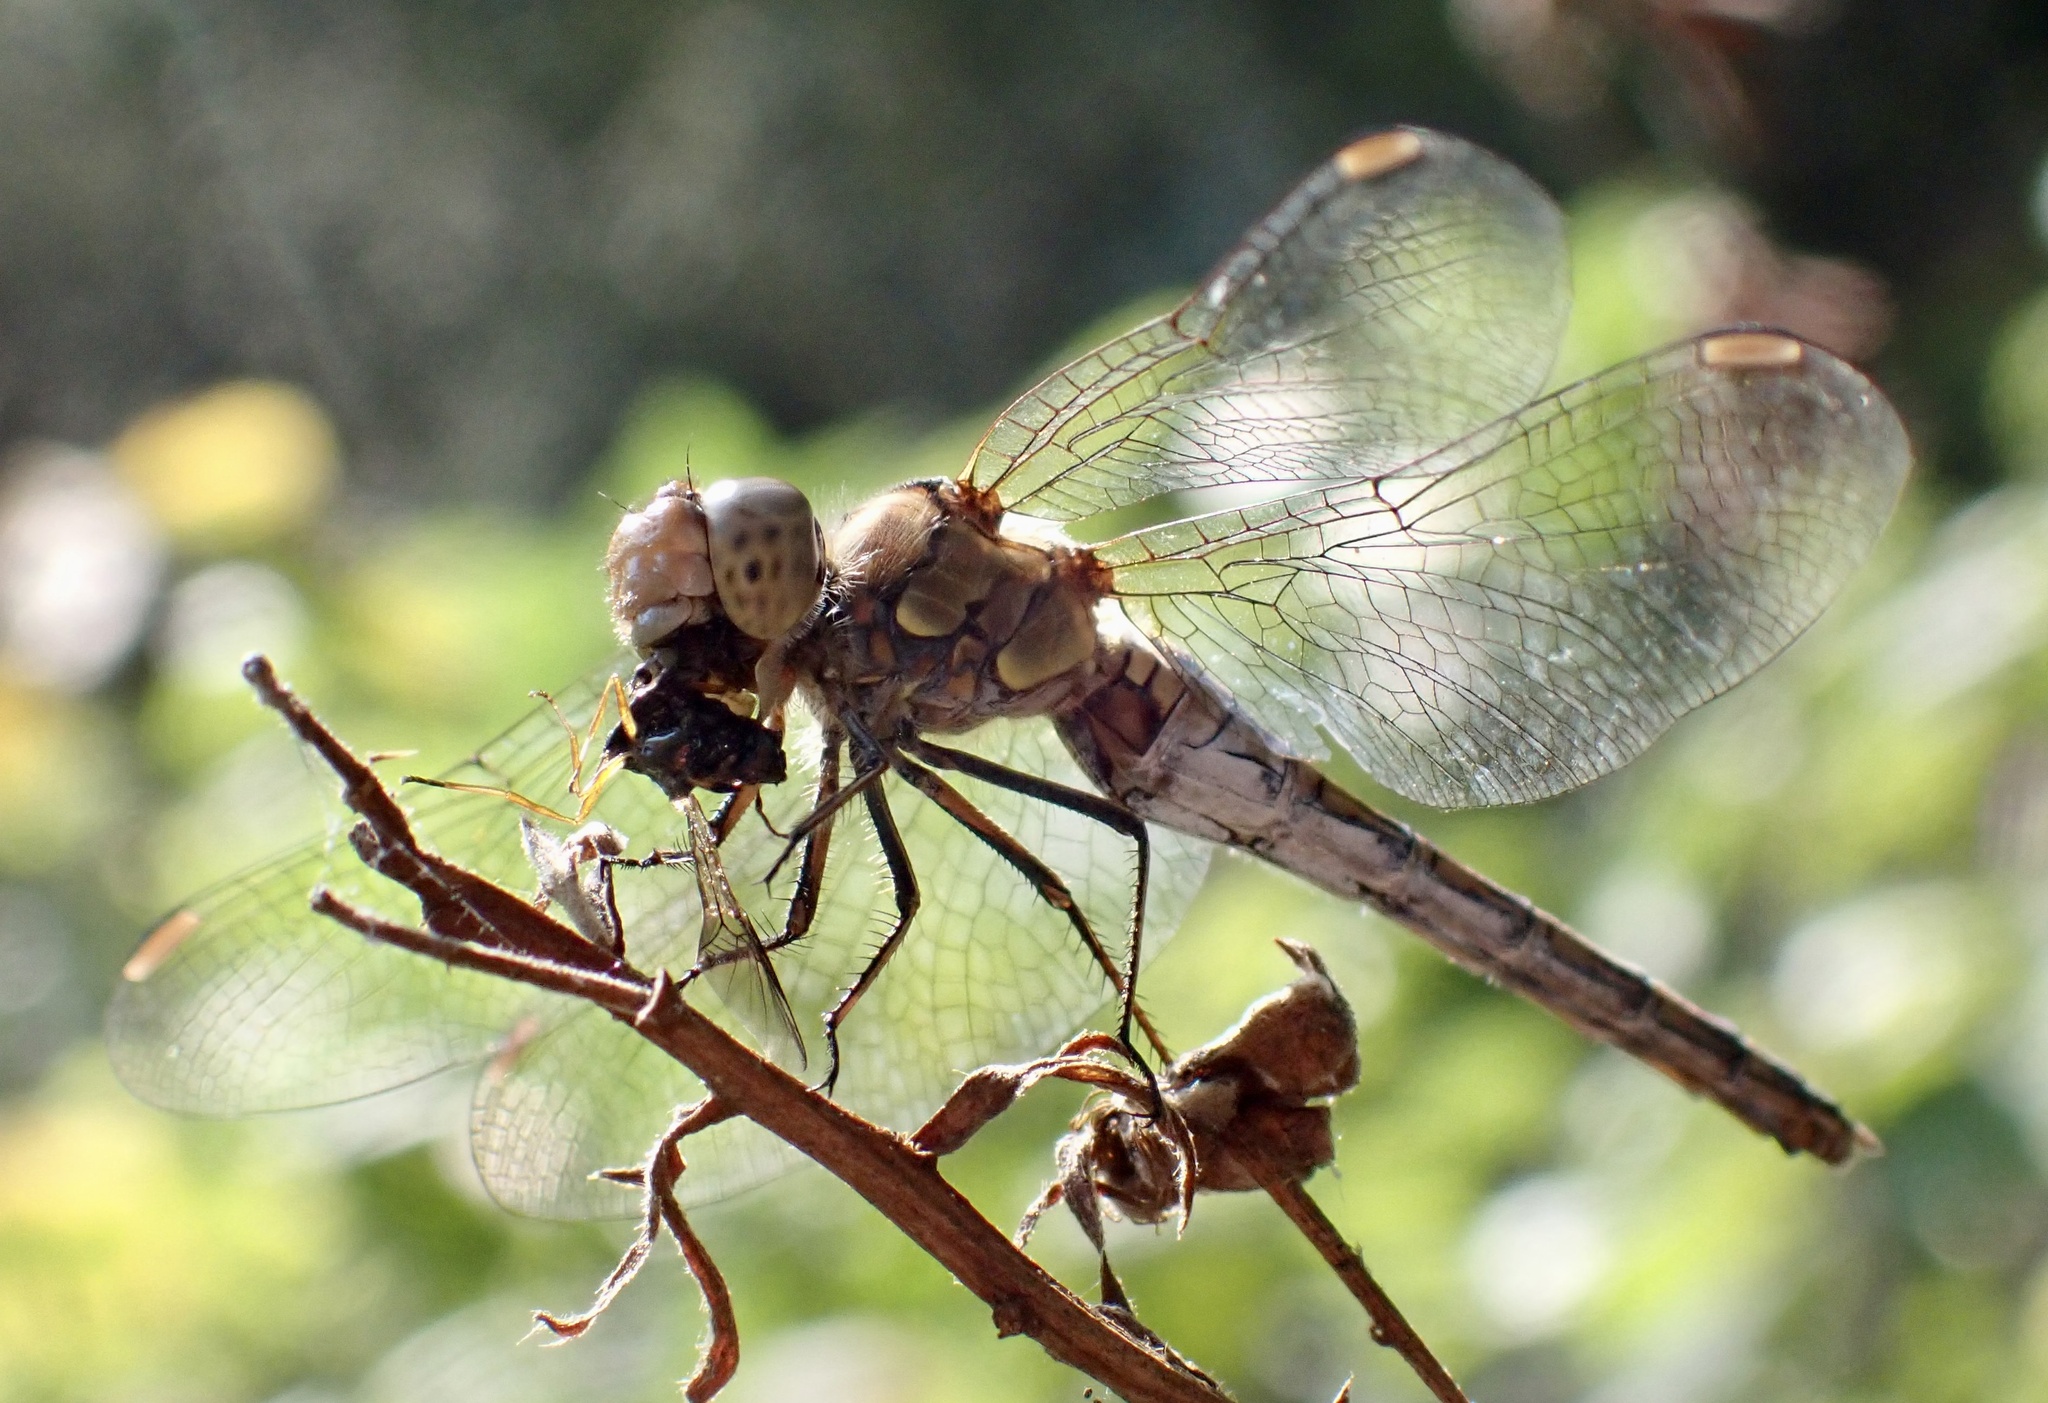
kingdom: Animalia
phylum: Arthropoda
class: Insecta
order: Odonata
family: Libellulidae
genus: Sympetrum
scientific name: Sympetrum striolatum
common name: Common darter
